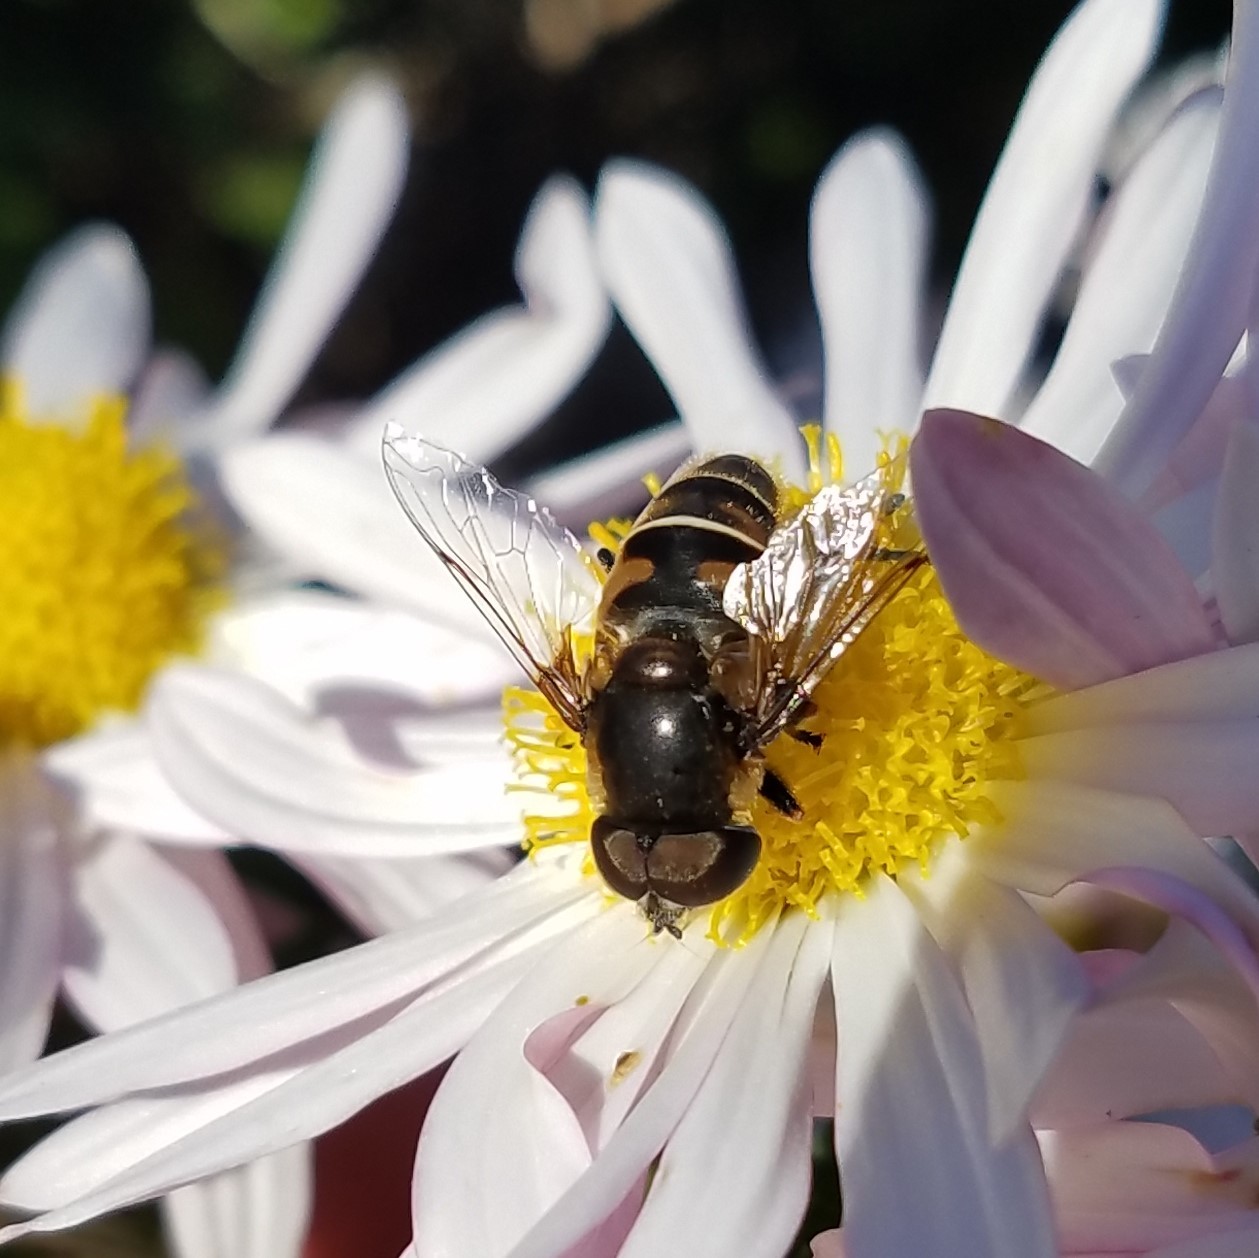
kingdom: Animalia
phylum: Arthropoda
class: Insecta
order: Diptera
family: Syrphidae
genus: Eristalis
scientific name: Eristalis dimidiata
